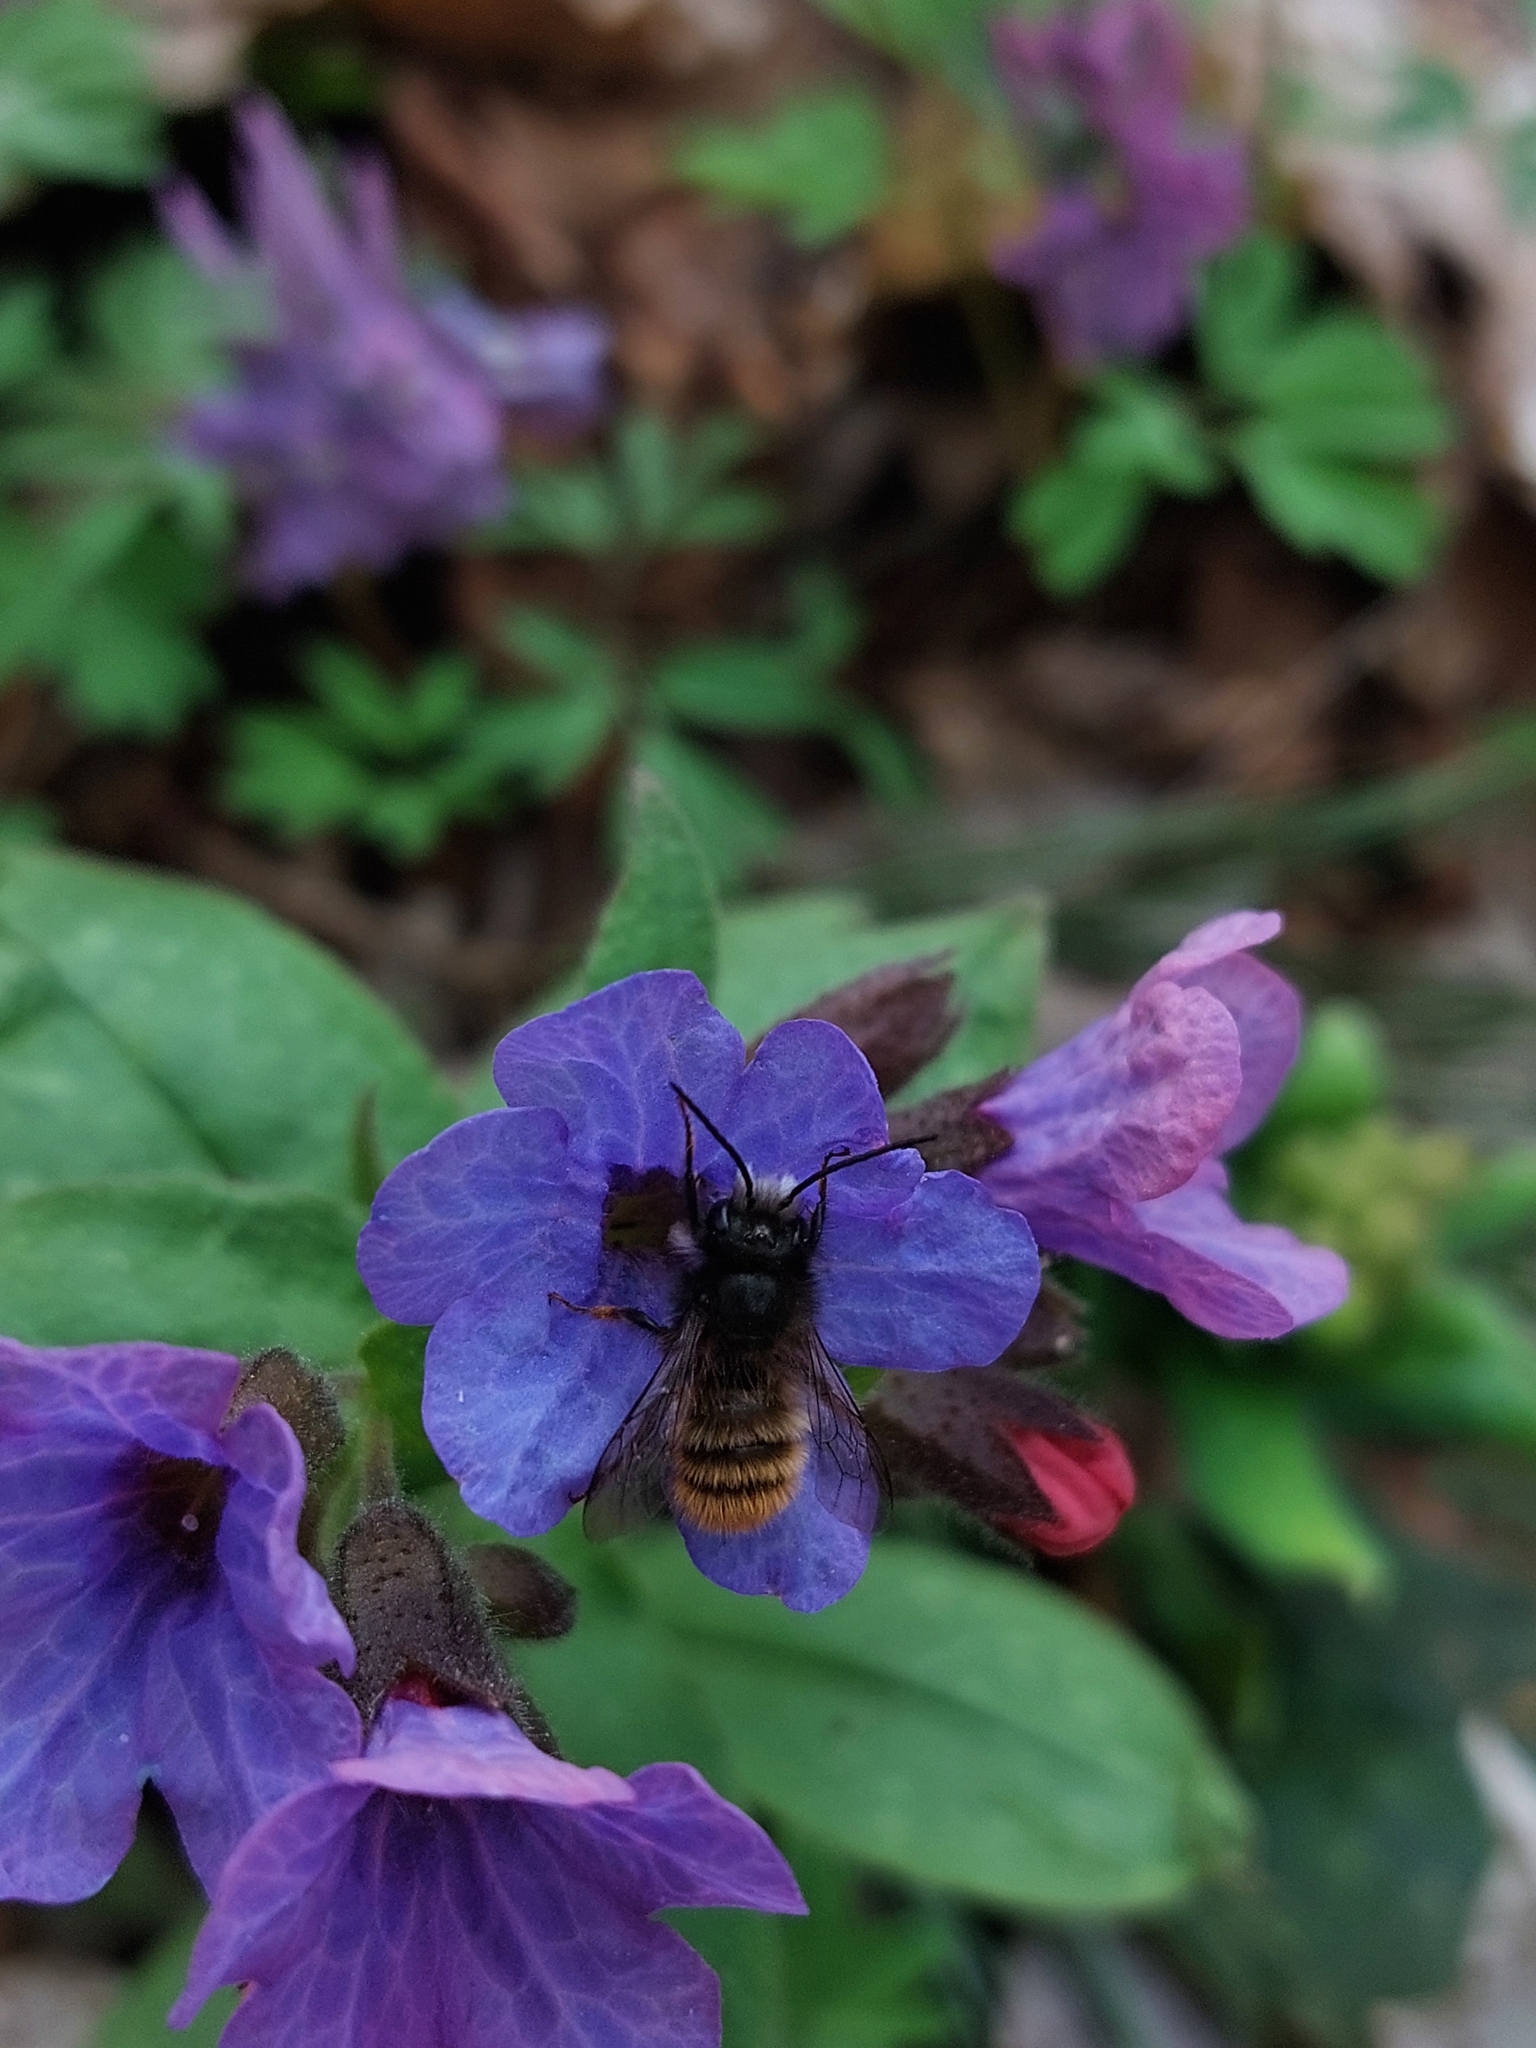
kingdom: Animalia
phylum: Arthropoda
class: Insecta
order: Hymenoptera
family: Megachilidae
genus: Osmia
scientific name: Osmia cornuta
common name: Mason bee
